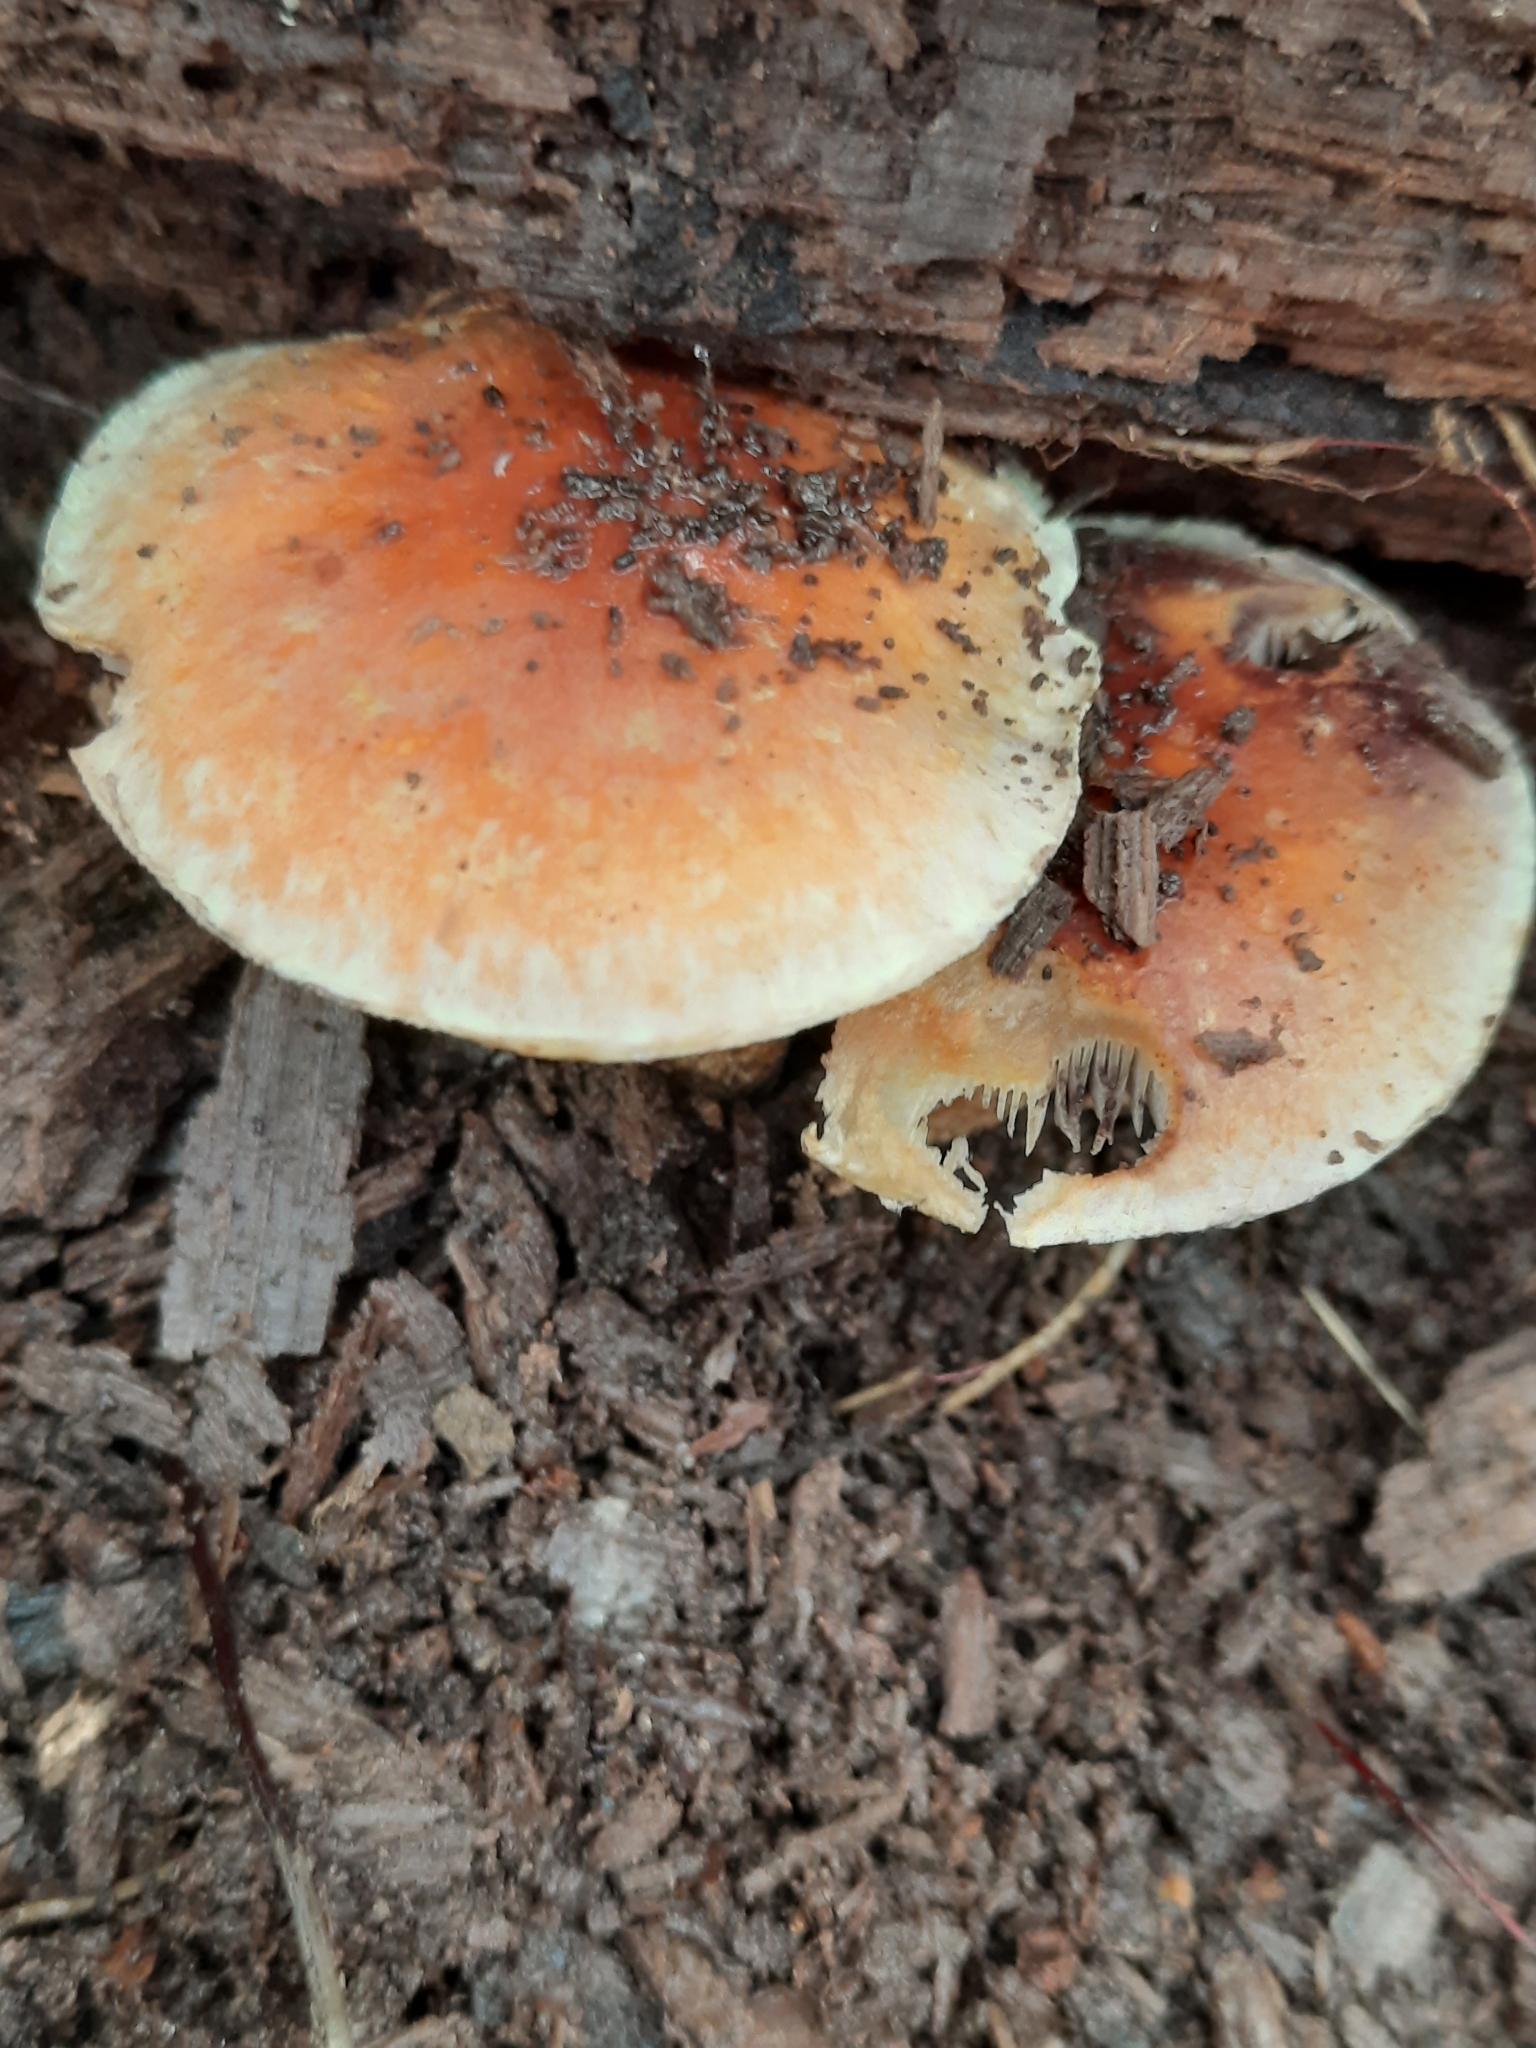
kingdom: Fungi
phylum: Basidiomycota
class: Agaricomycetes
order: Agaricales
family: Strophariaceae
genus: Hypholoma
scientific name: Hypholoma lateritium
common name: Brick caps
